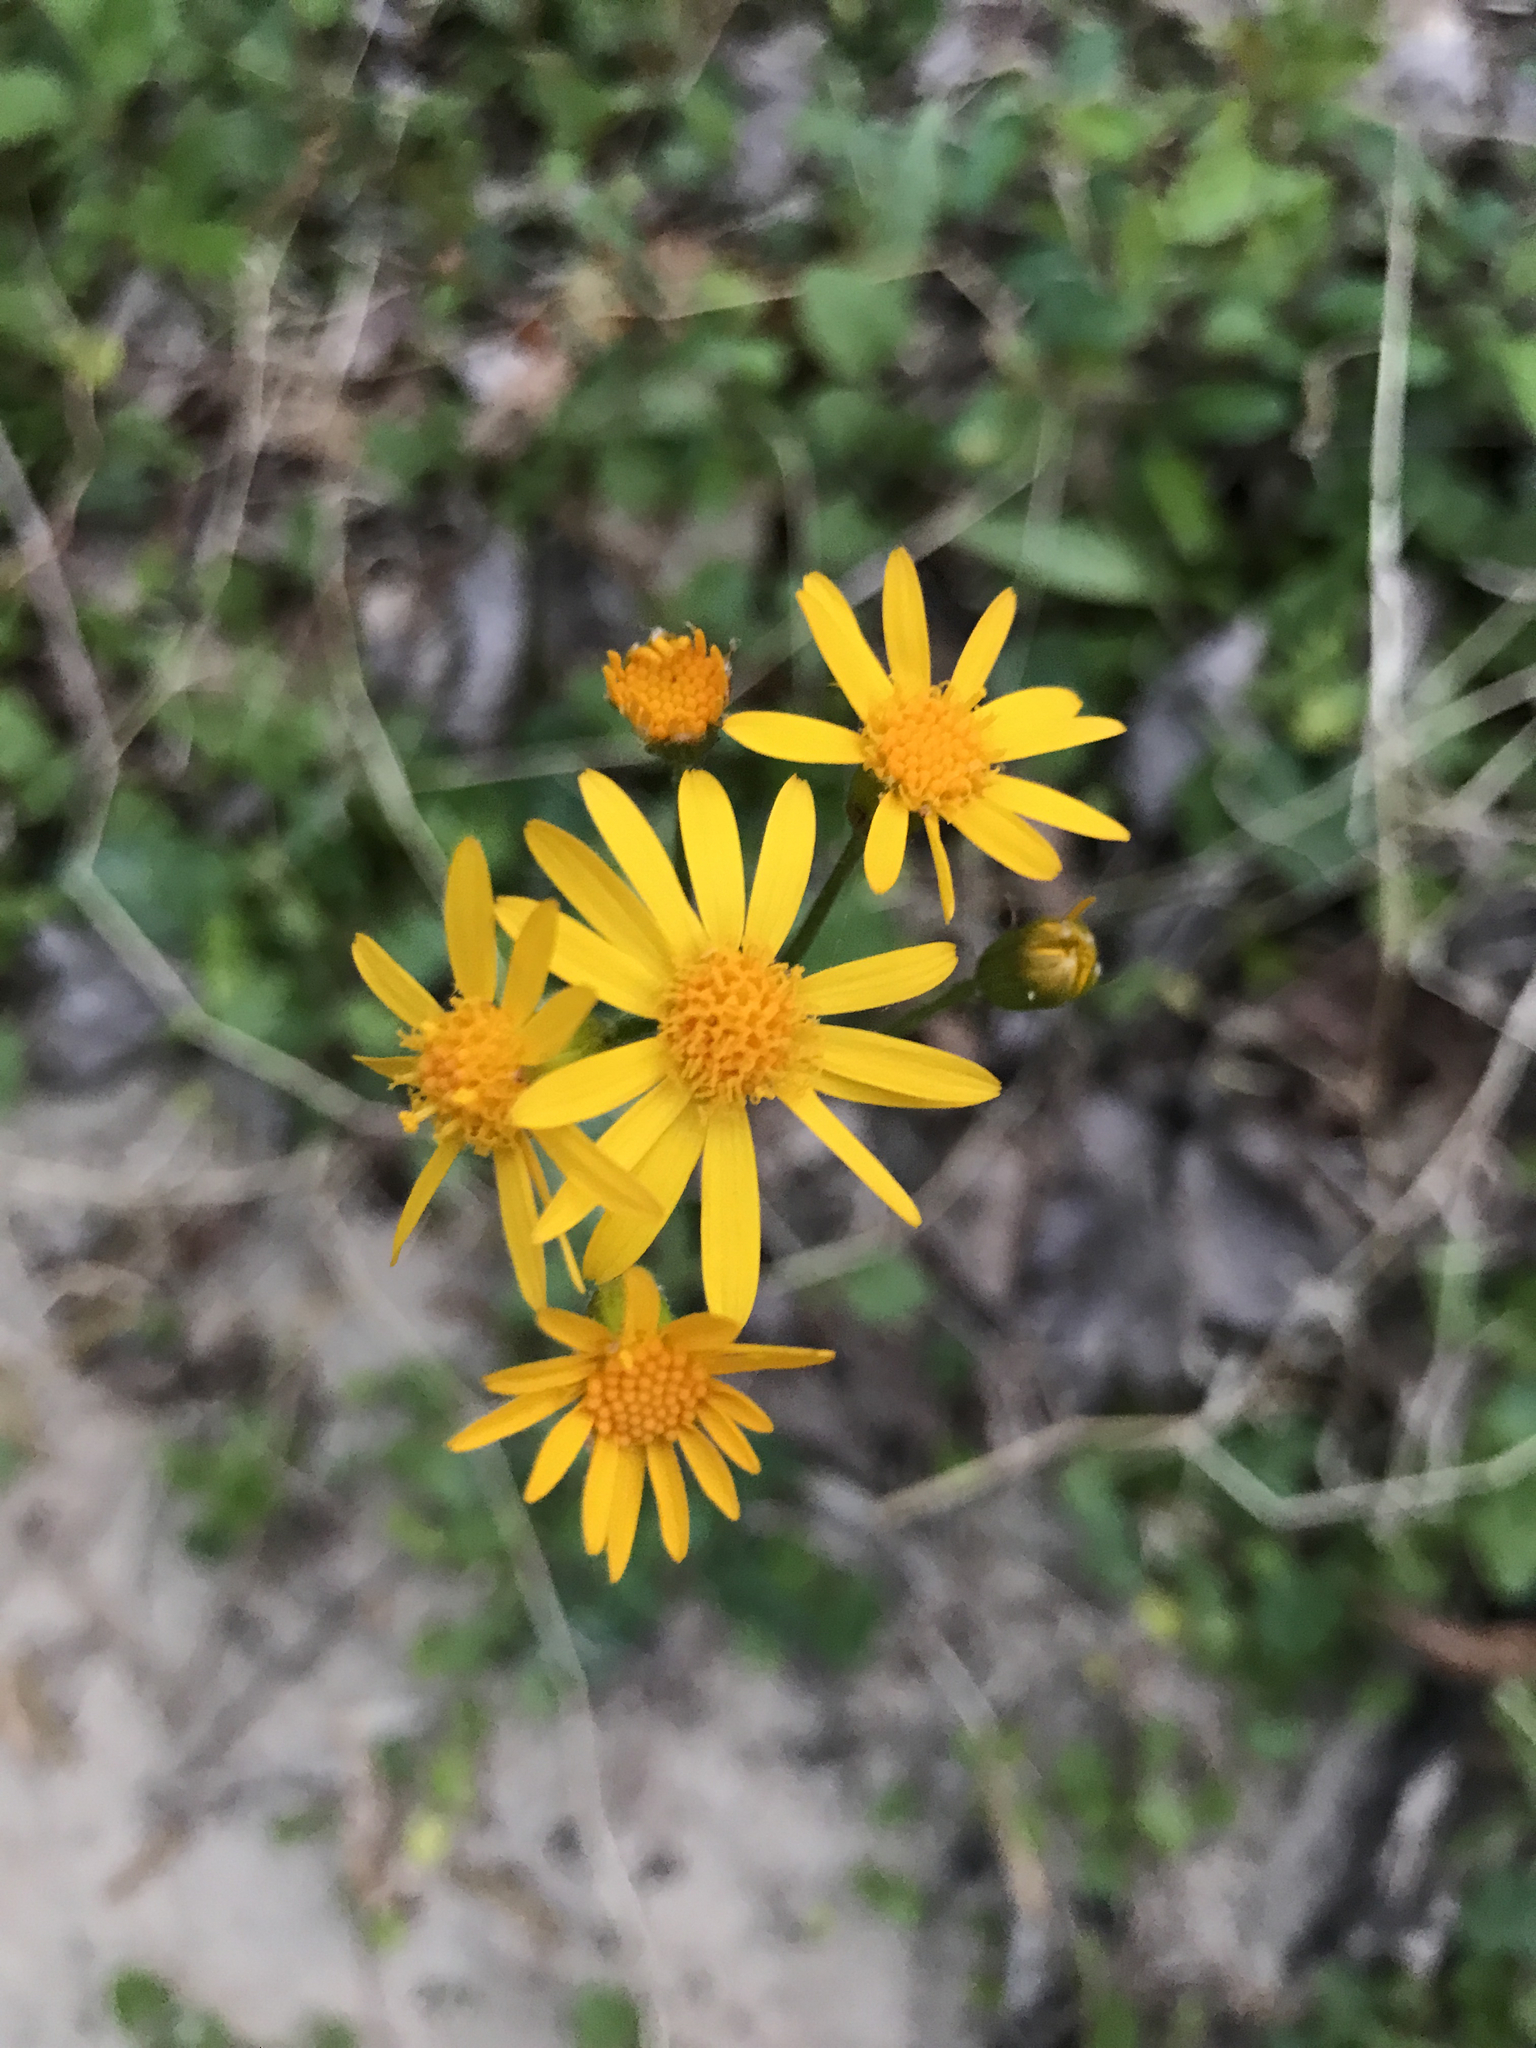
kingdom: Plantae
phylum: Tracheophyta
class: Magnoliopsida
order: Asterales
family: Asteraceae
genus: Packera
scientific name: Packera aurea
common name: Golden groundsel
